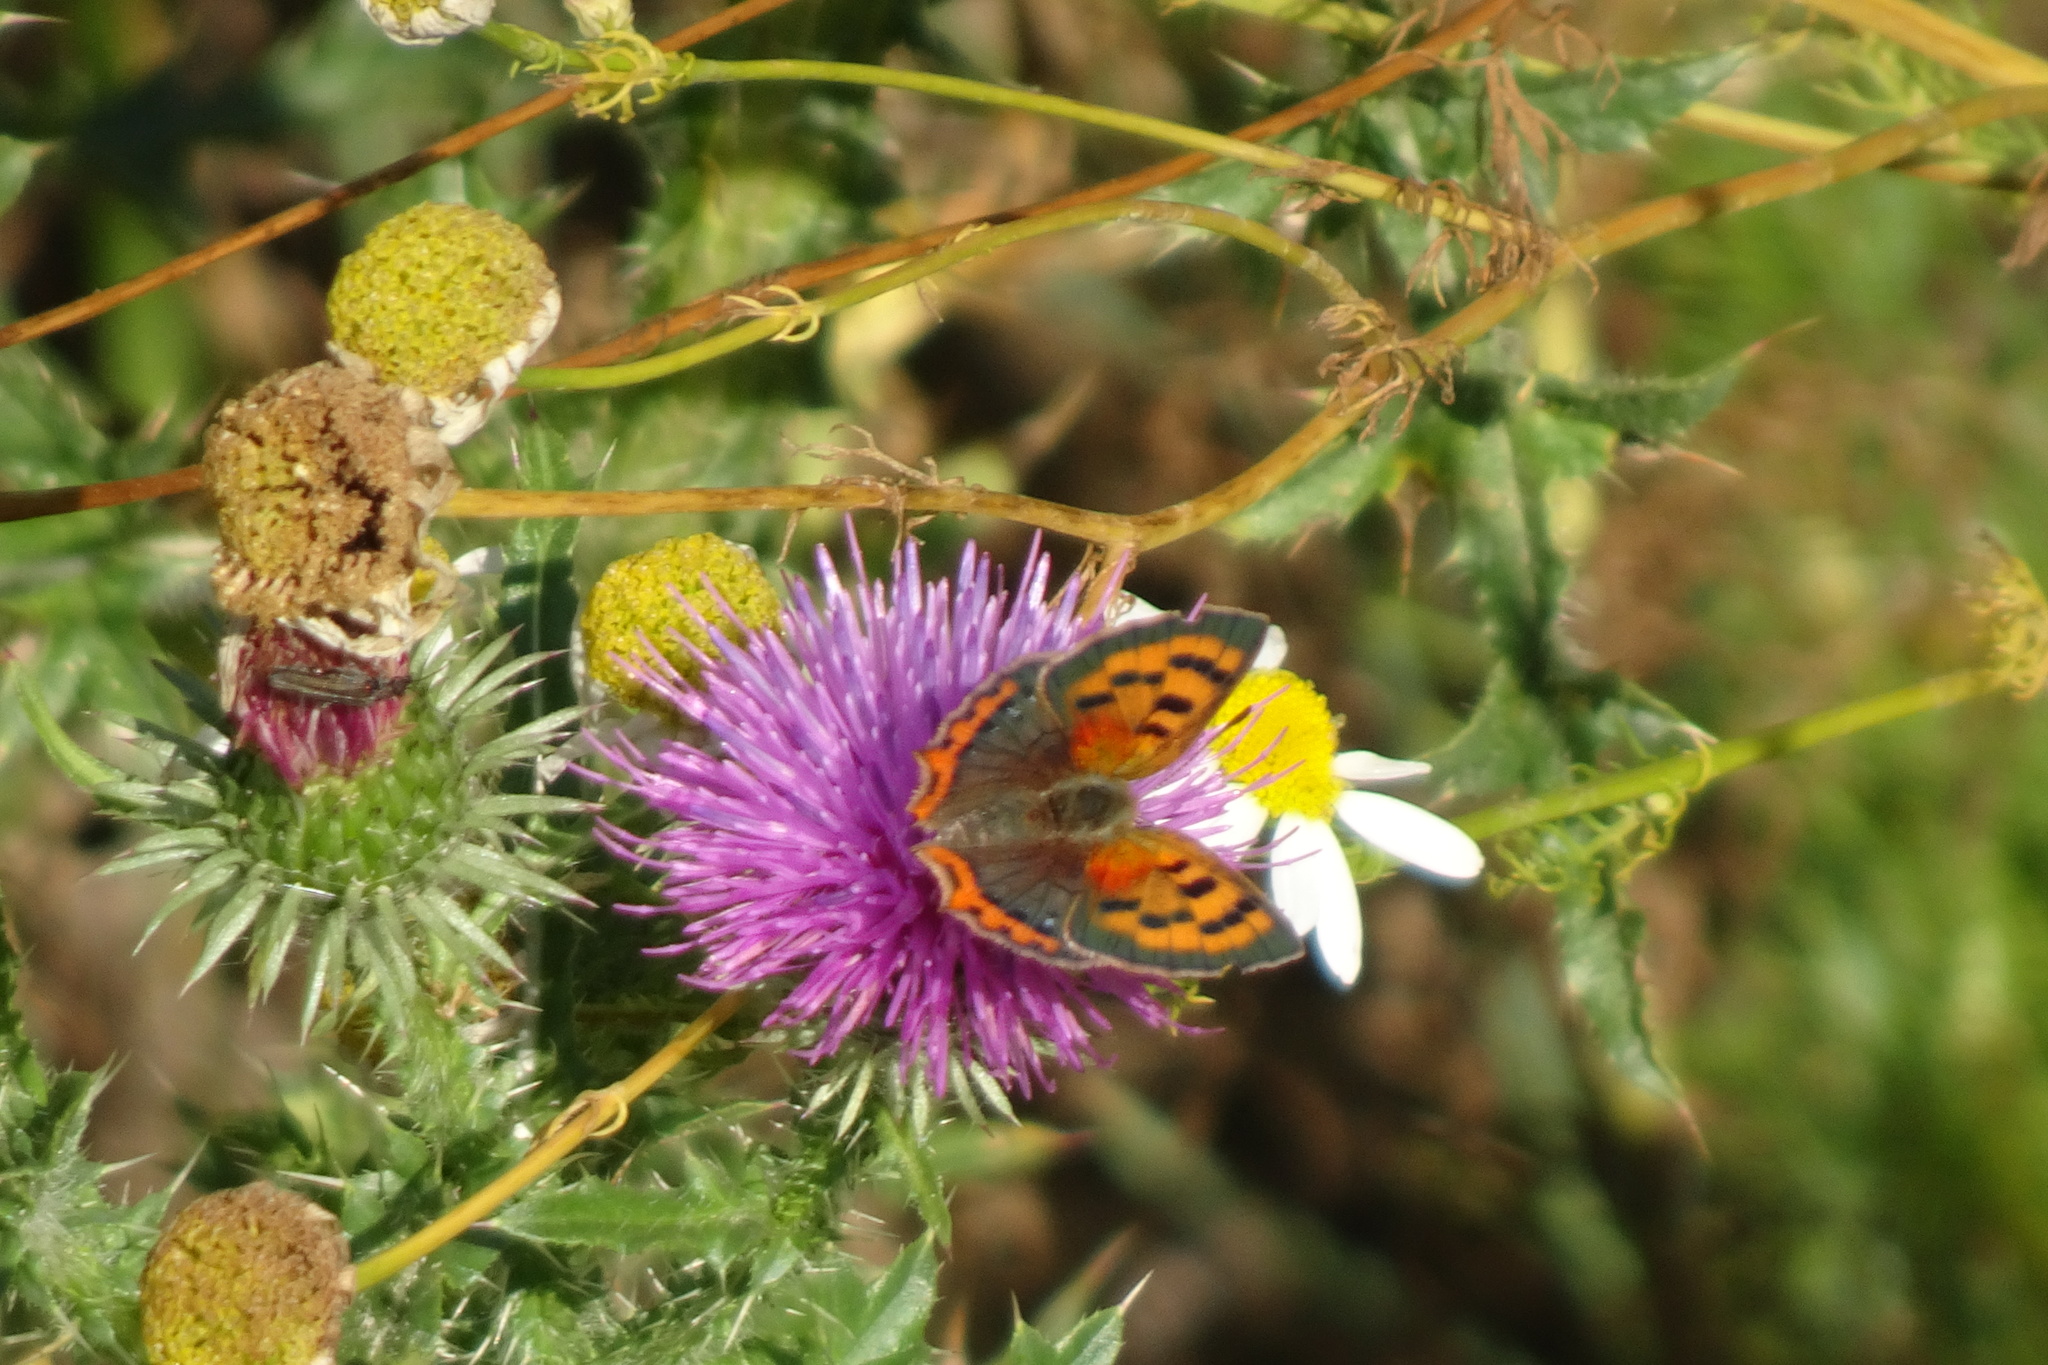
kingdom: Animalia
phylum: Arthropoda
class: Insecta
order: Lepidoptera
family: Lycaenidae
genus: Lycaena
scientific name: Lycaena phlaeas
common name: Small copper
